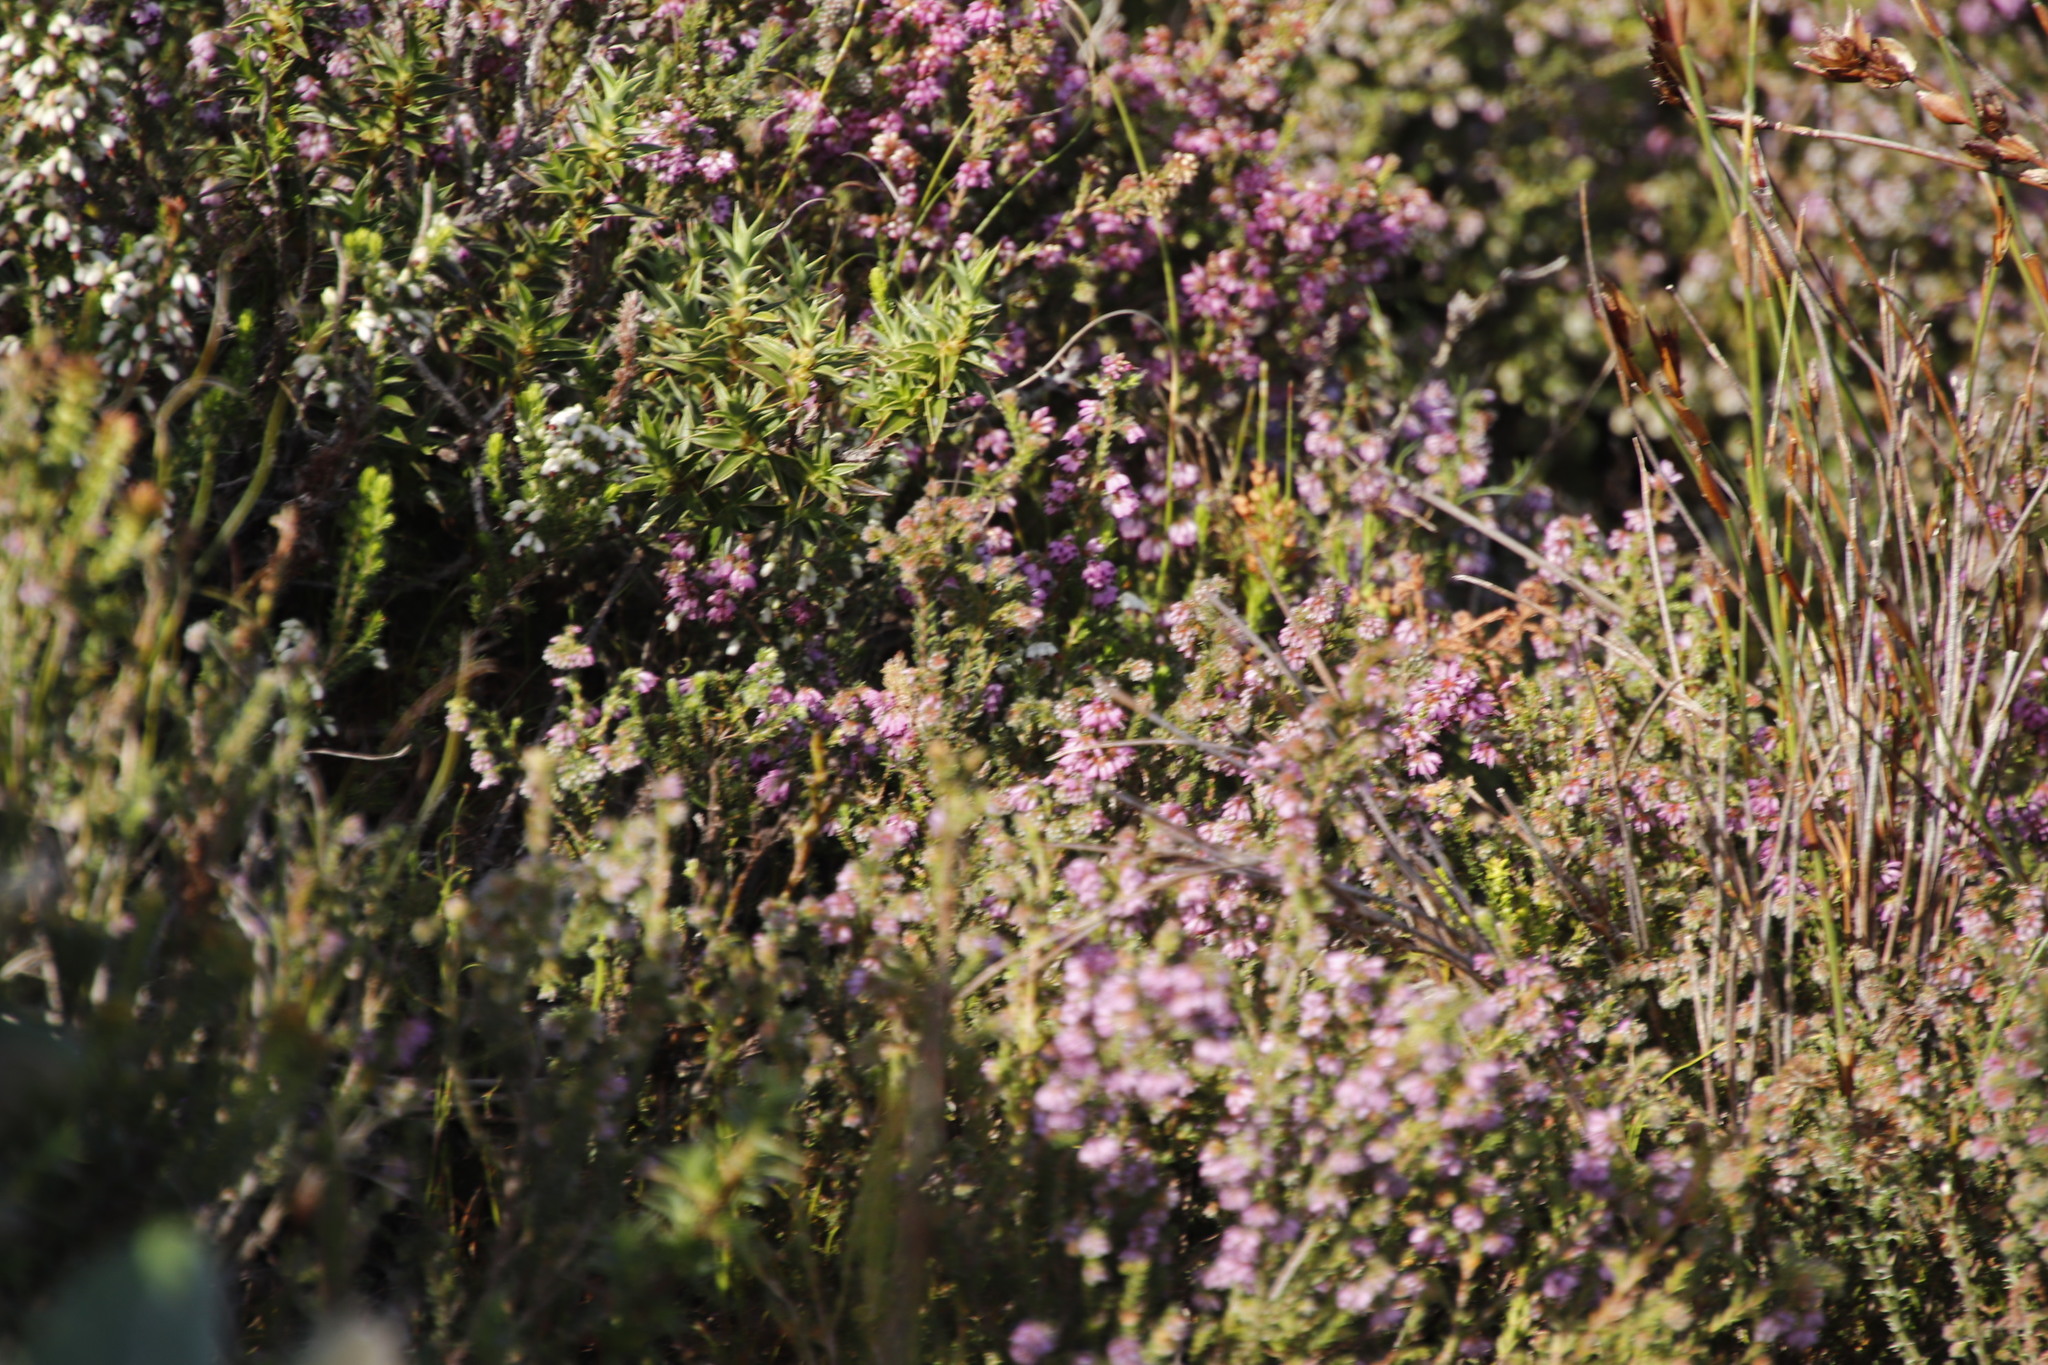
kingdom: Plantae
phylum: Tracheophyta
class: Magnoliopsida
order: Ericales
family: Ericaceae
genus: Erica
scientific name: Erica glabella
